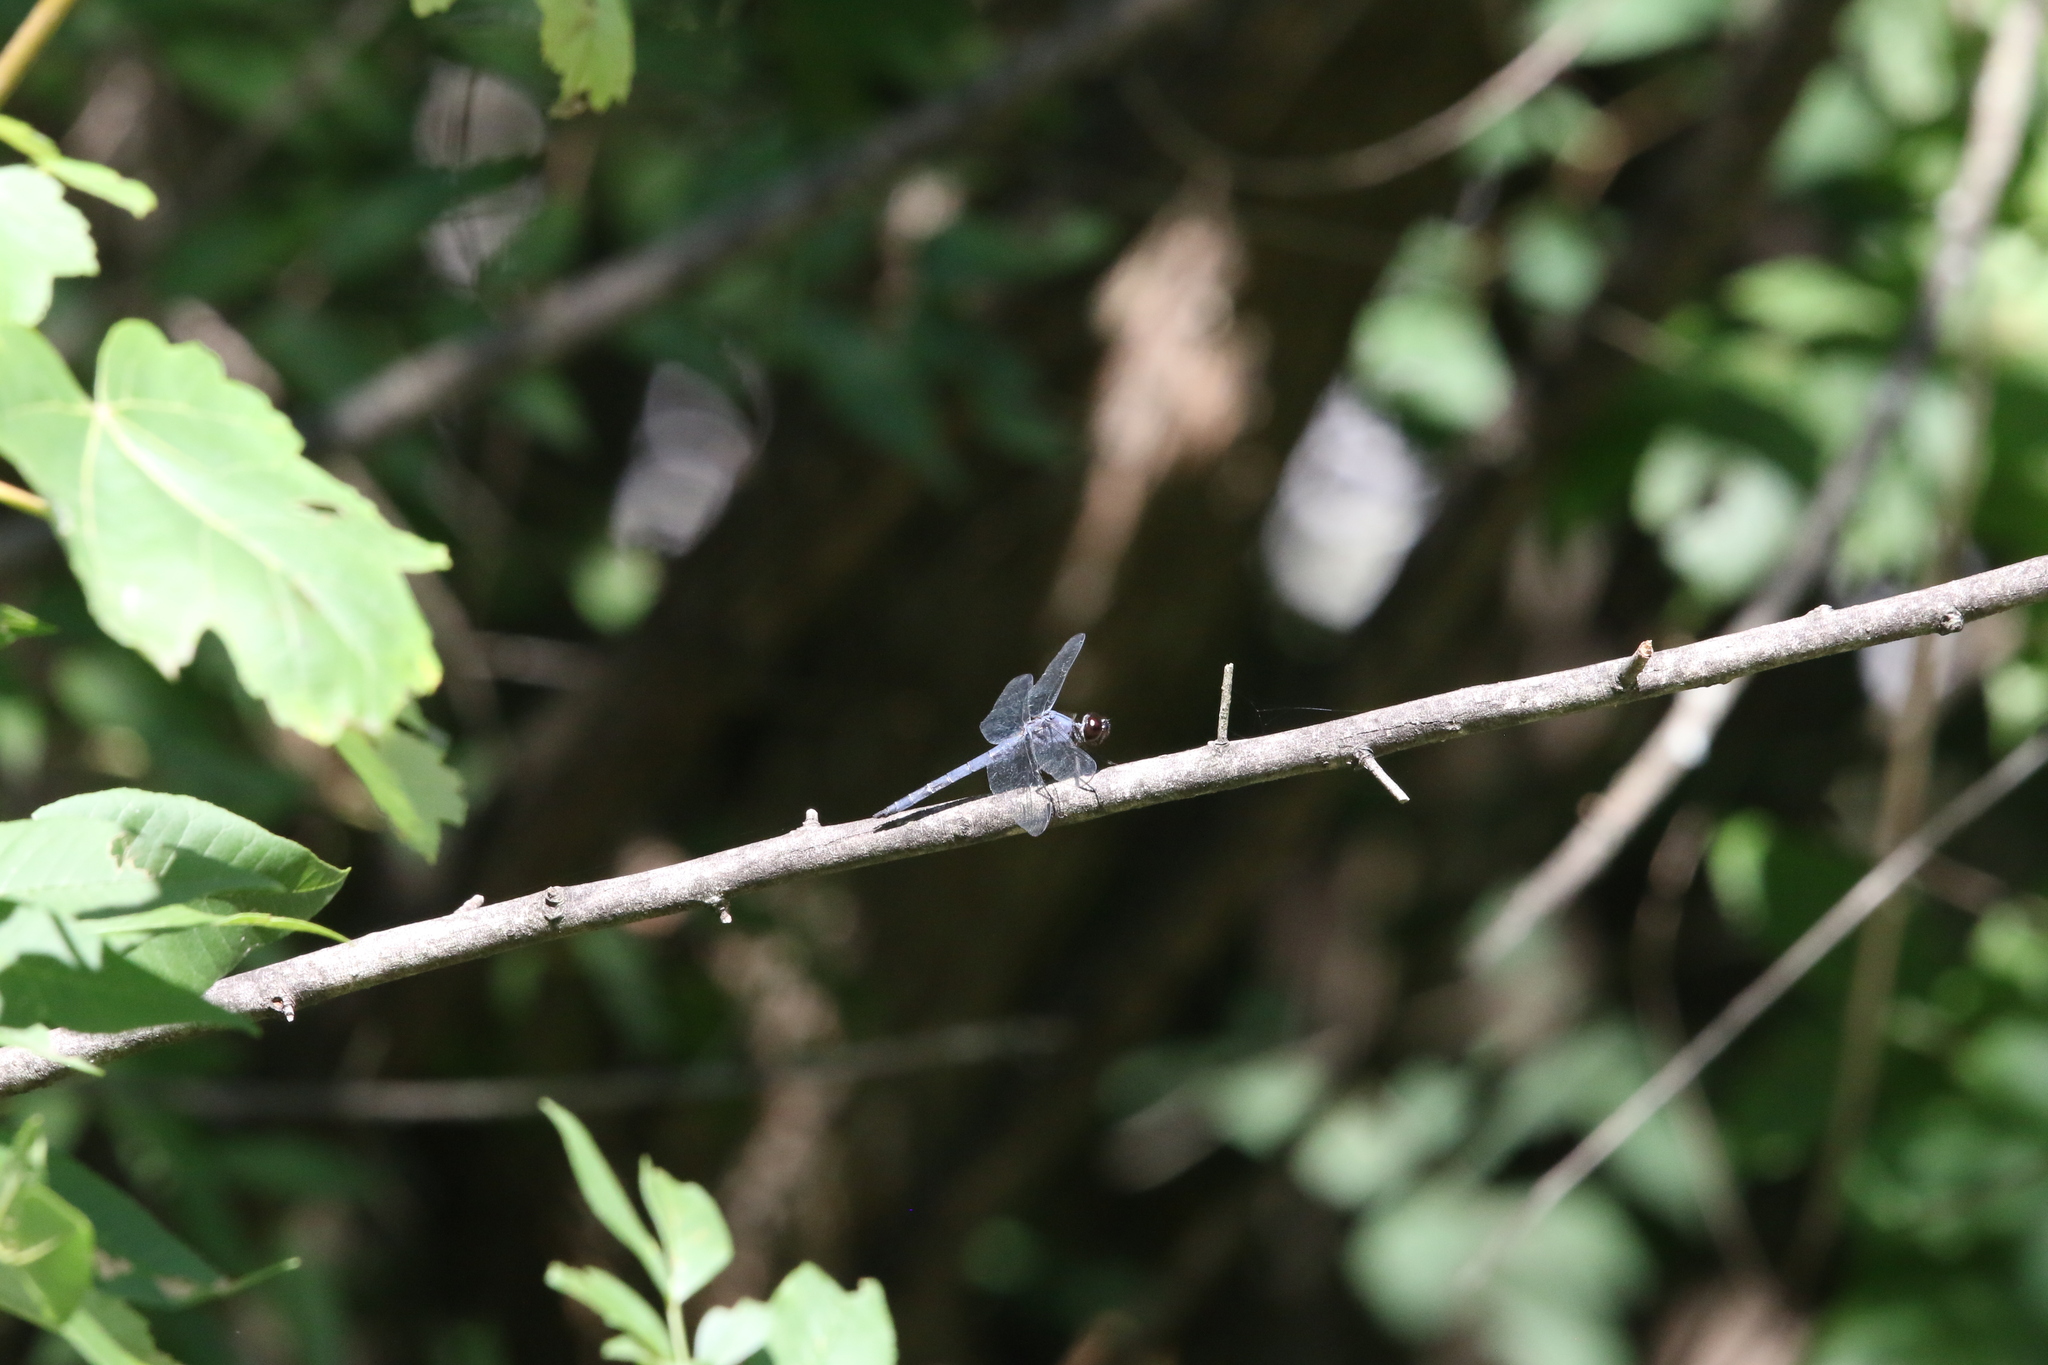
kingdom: Animalia
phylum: Arthropoda
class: Insecta
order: Odonata
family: Libellulidae
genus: Libellula
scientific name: Libellula incesta
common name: Slaty skimmer
